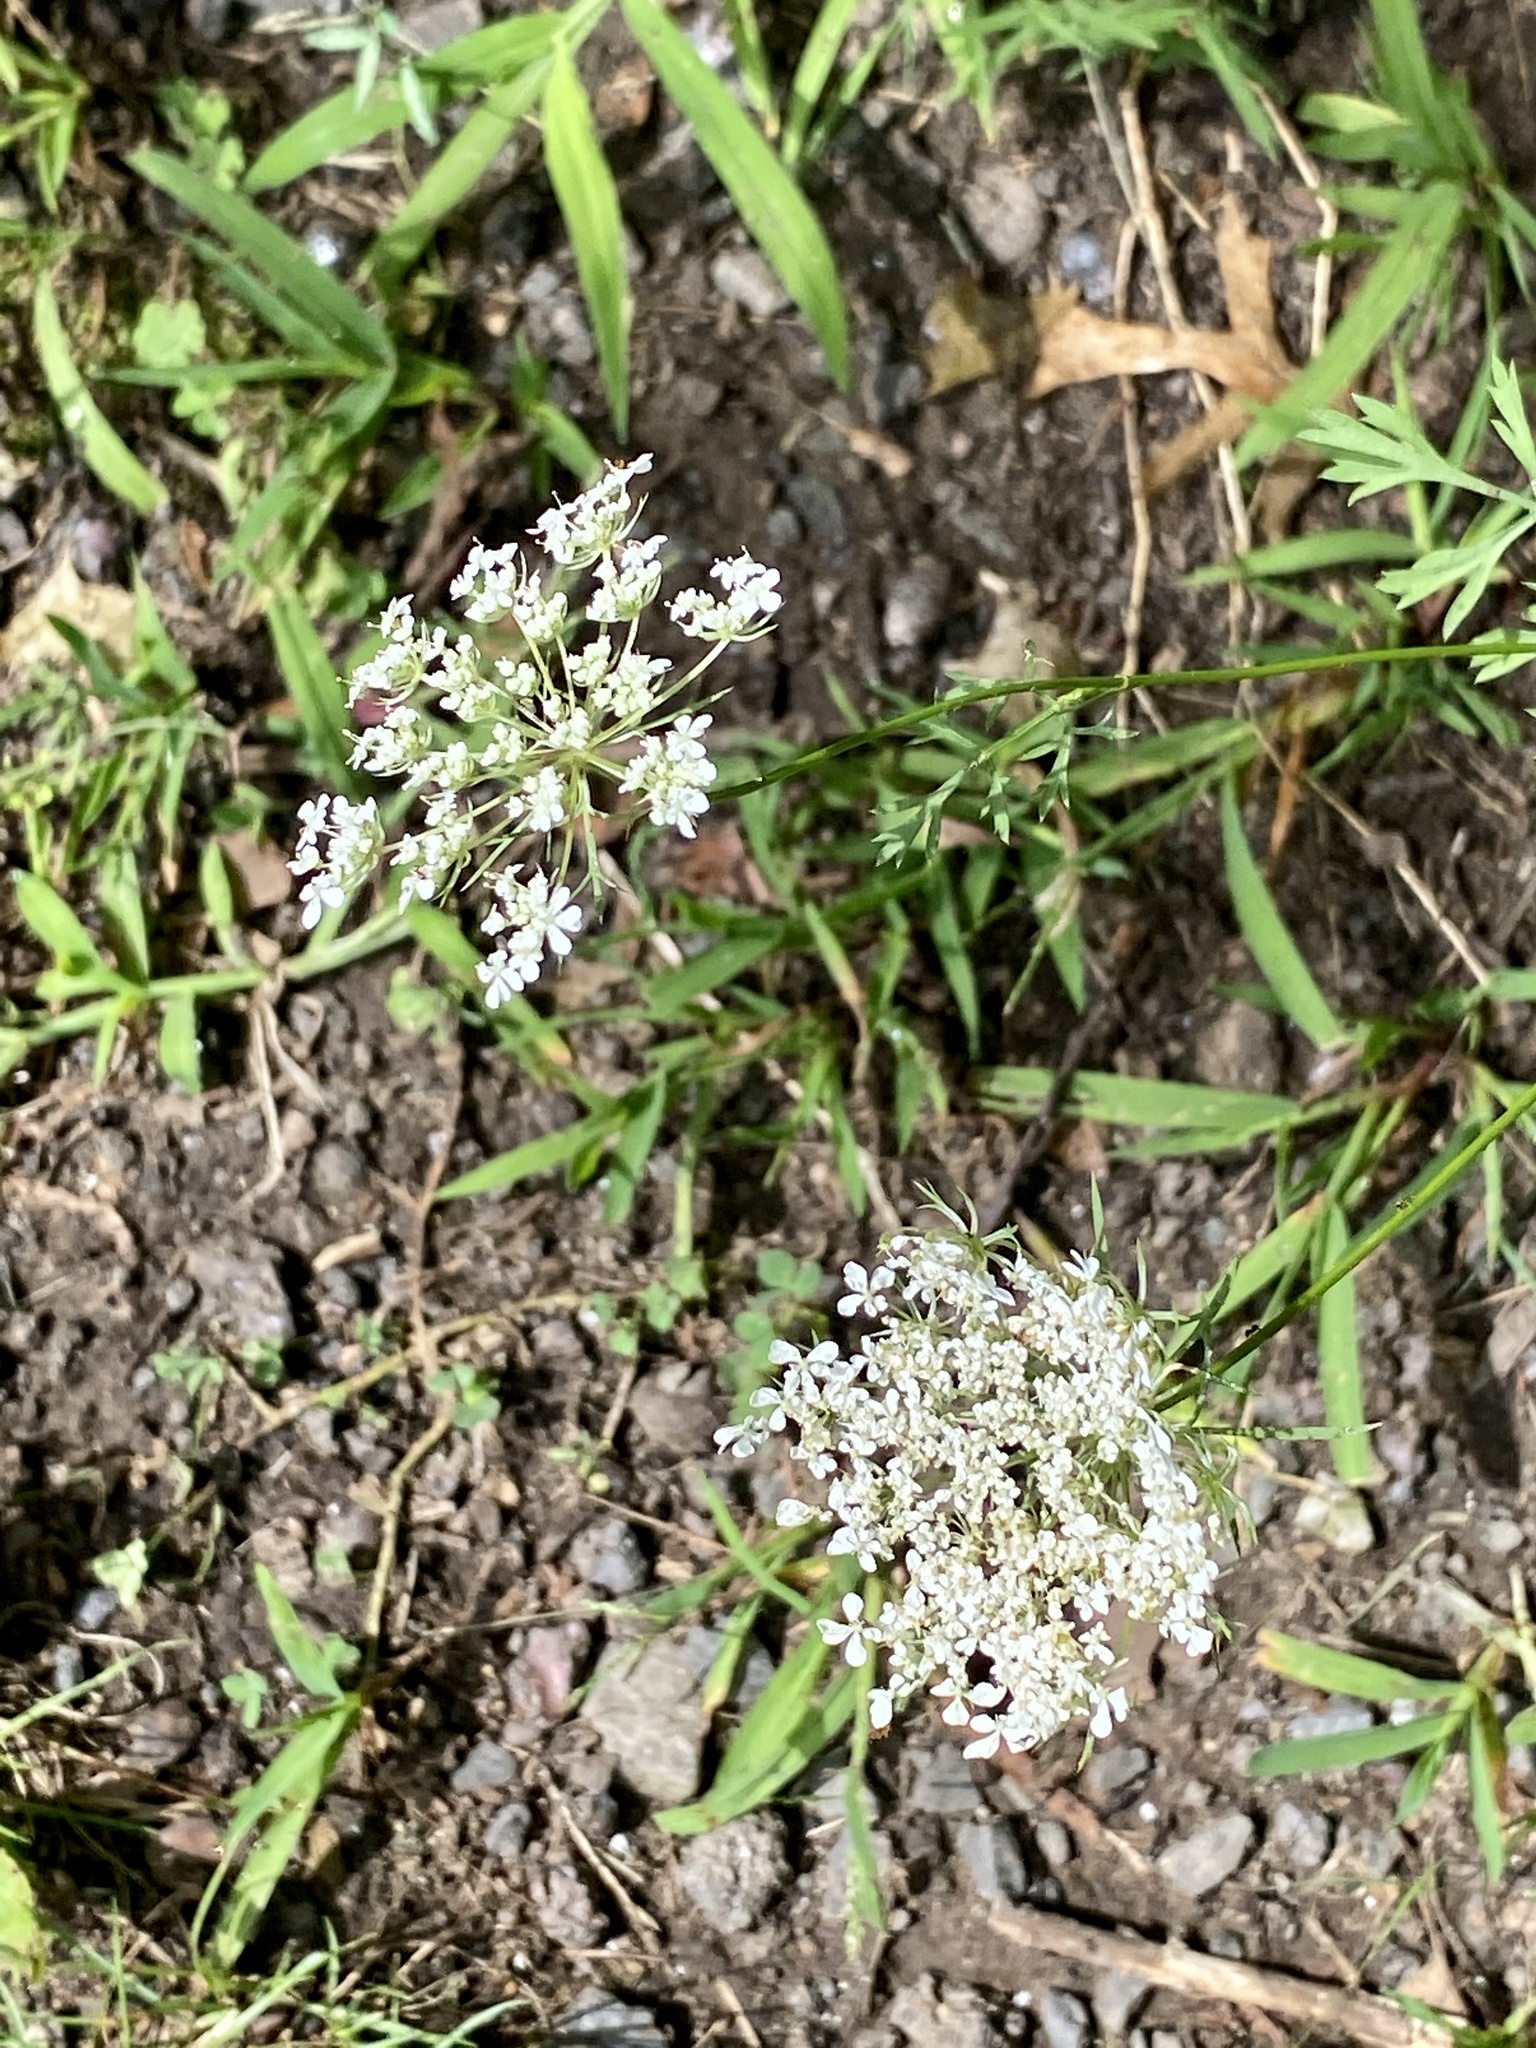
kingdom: Plantae
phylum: Tracheophyta
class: Magnoliopsida
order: Apiales
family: Apiaceae
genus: Daucus
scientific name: Daucus carota
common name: Wild carrot
